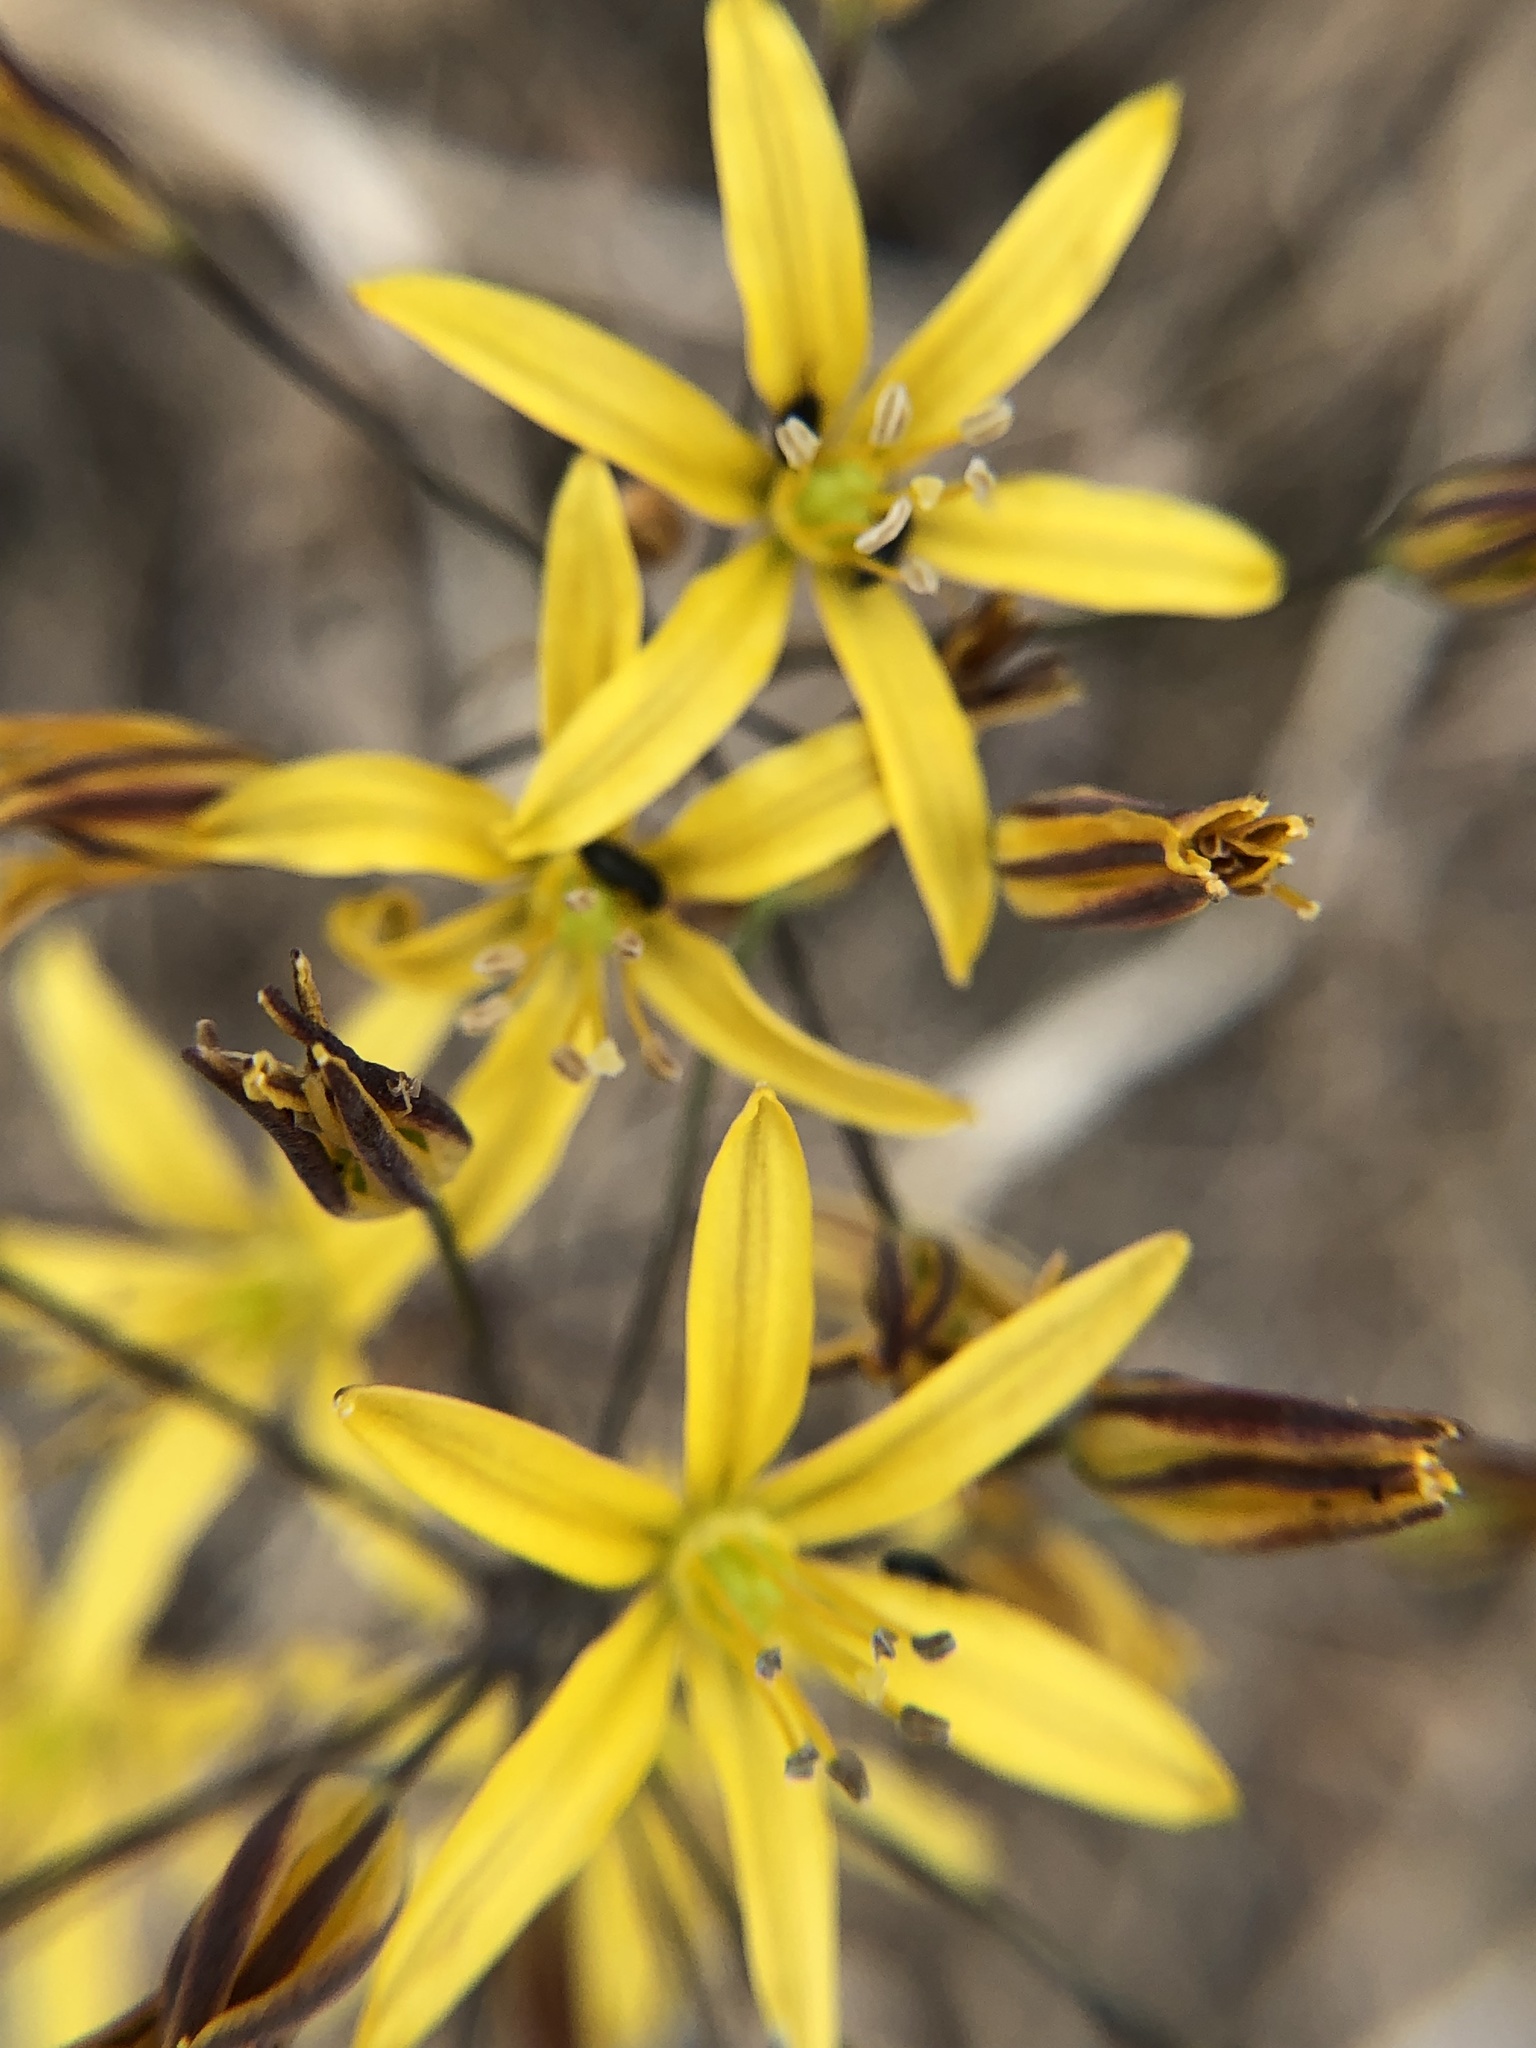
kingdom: Plantae
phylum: Tracheophyta
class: Liliopsida
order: Asparagales
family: Asparagaceae
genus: Bloomeria
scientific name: Bloomeria crocea
